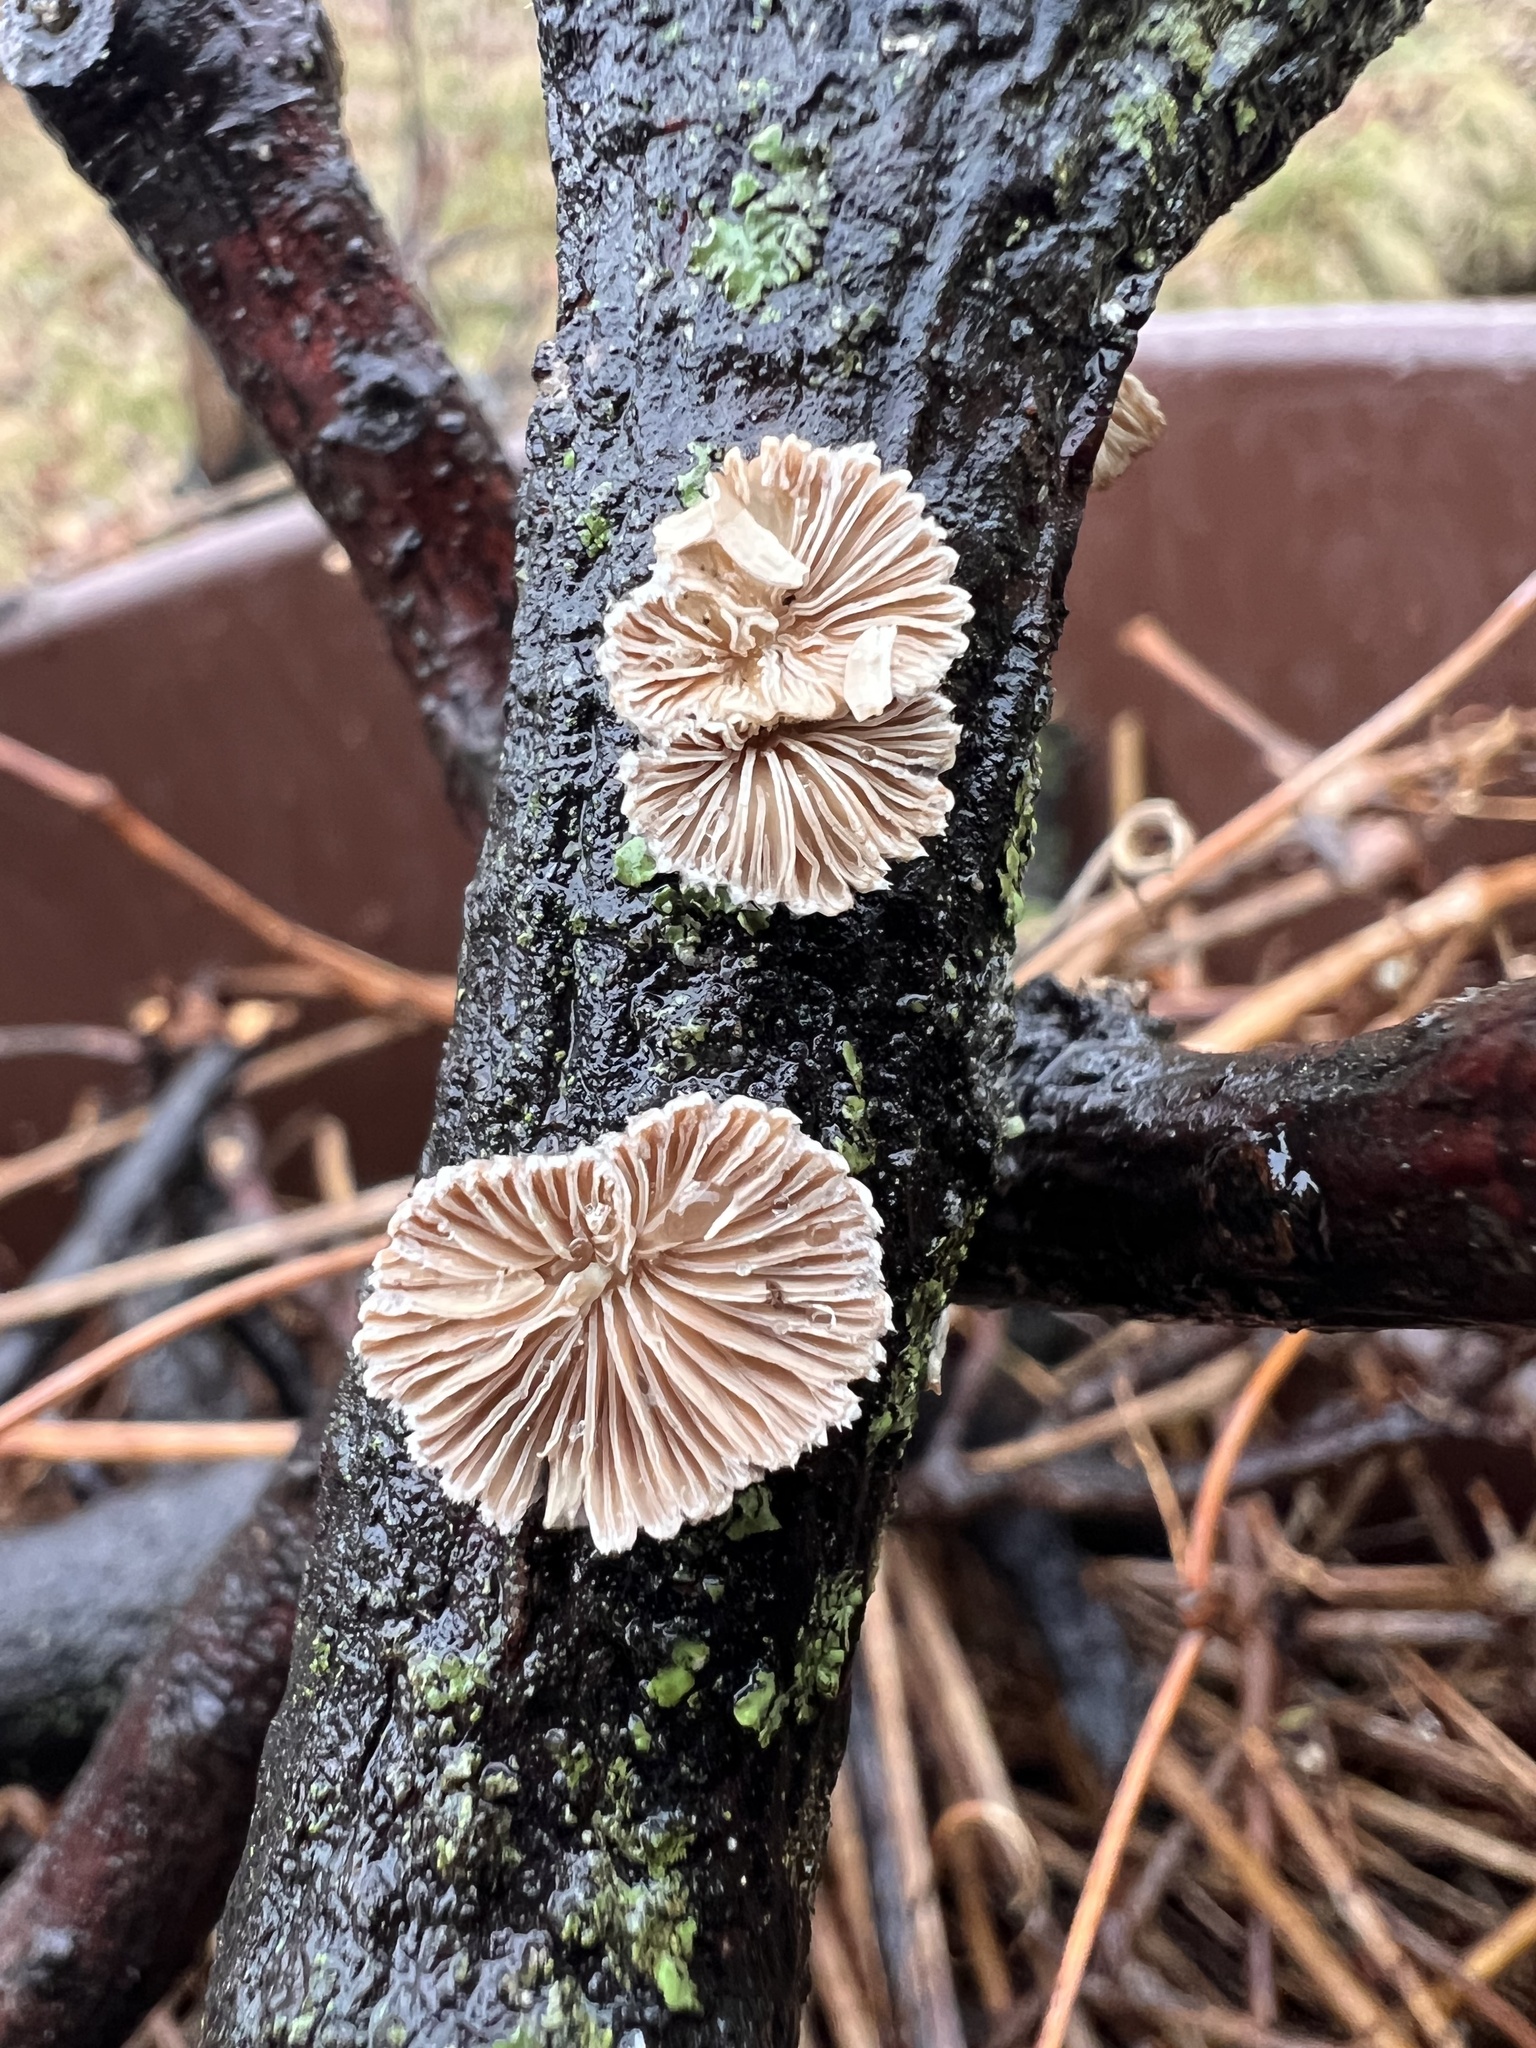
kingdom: Fungi
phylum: Basidiomycota
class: Agaricomycetes
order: Agaricales
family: Schizophyllaceae
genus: Schizophyllum
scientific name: Schizophyllum commune
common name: Common porecrust
